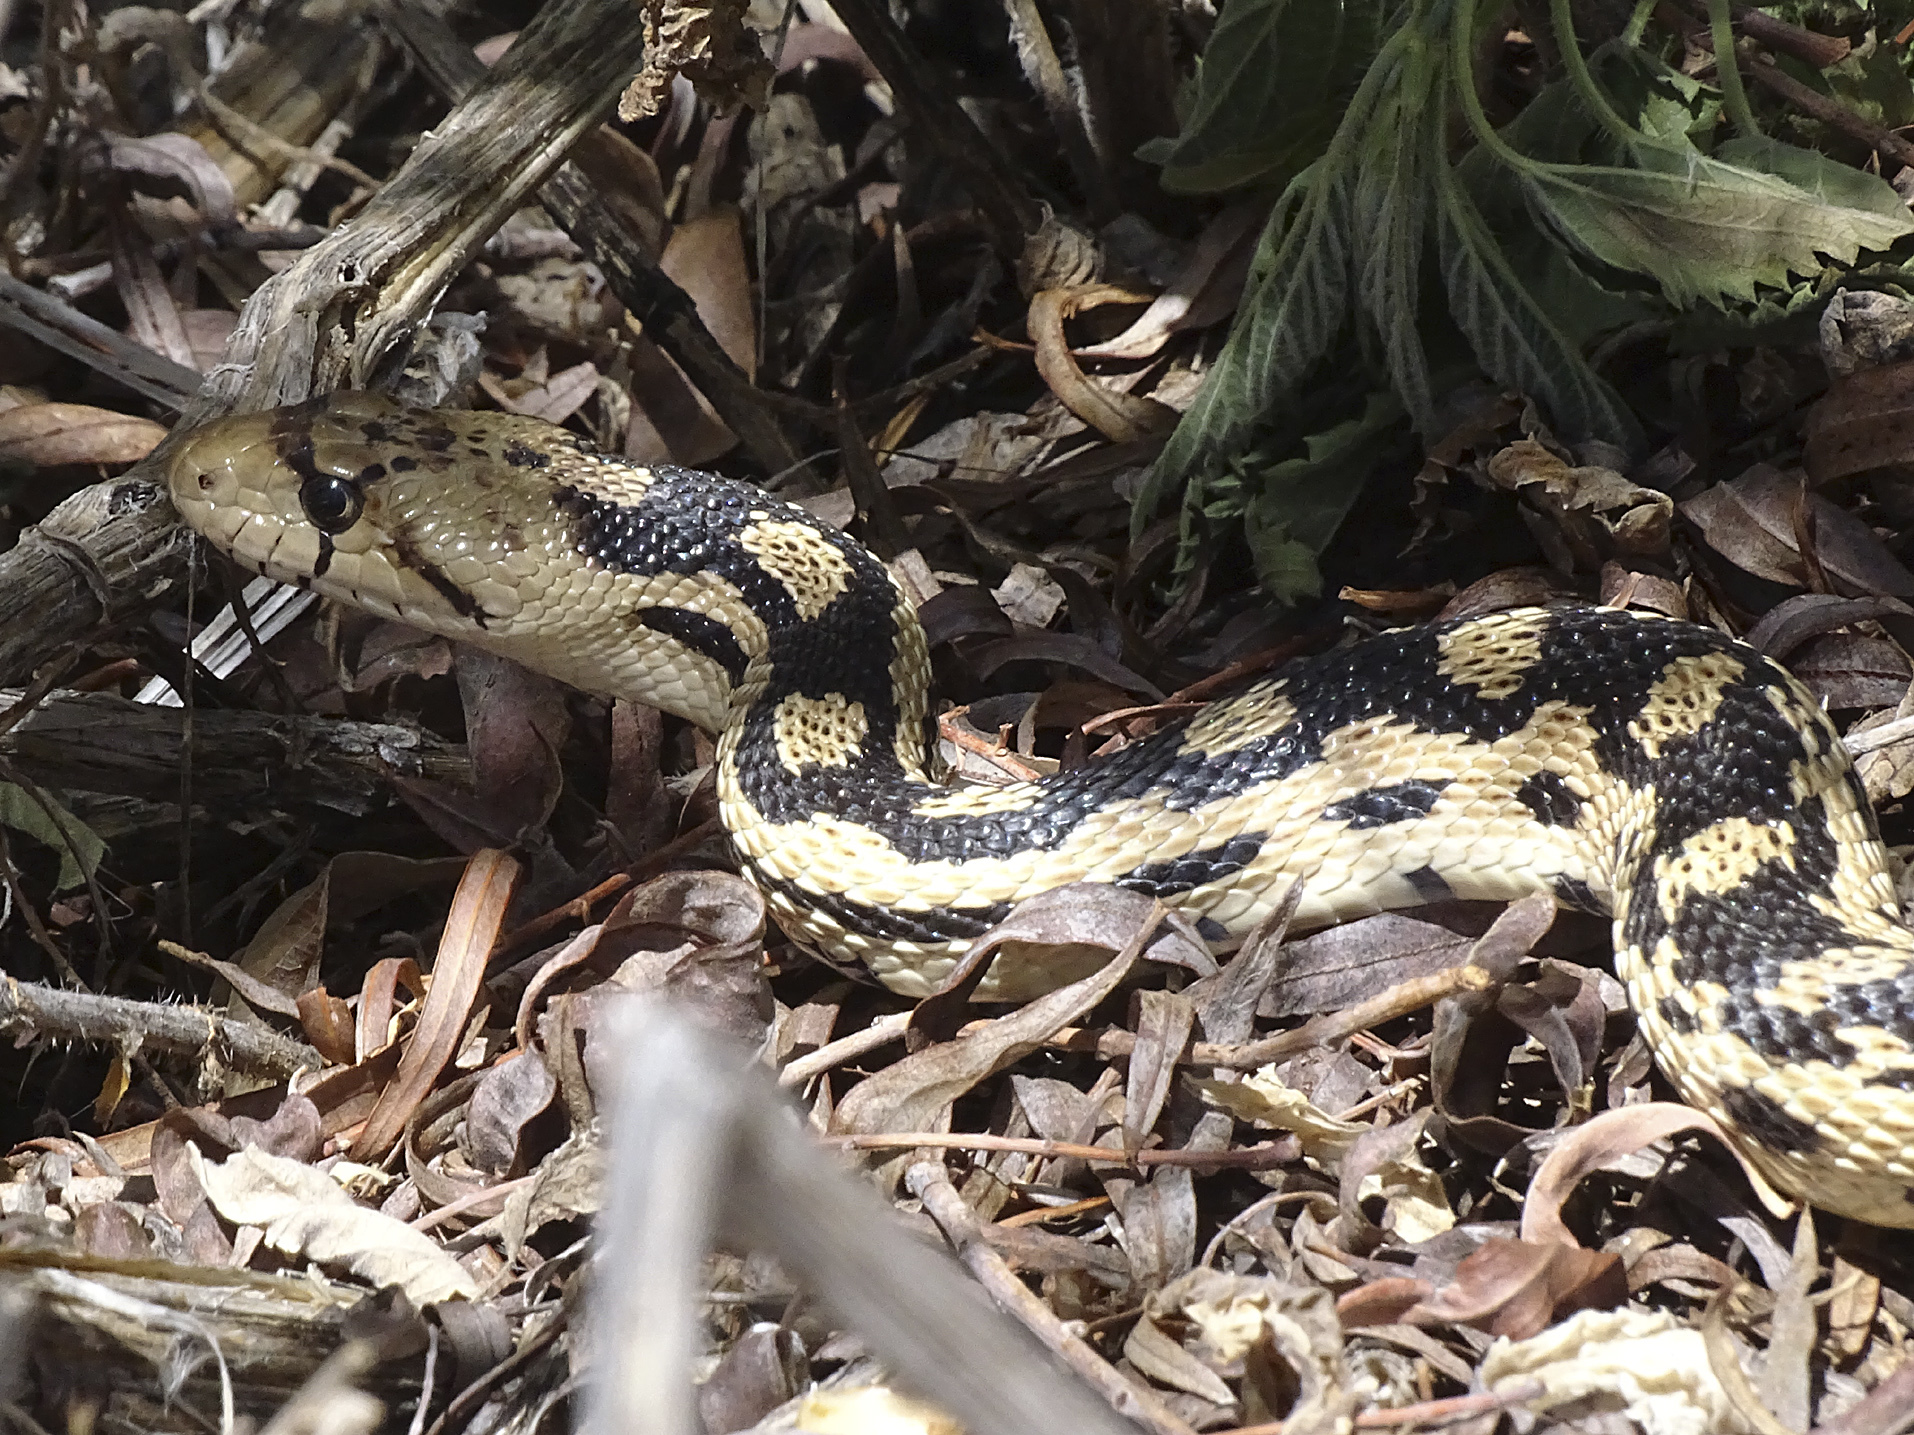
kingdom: Animalia
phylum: Chordata
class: Squamata
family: Colubridae
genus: Pituophis
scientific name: Pituophis catenifer
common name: Gopher snake
